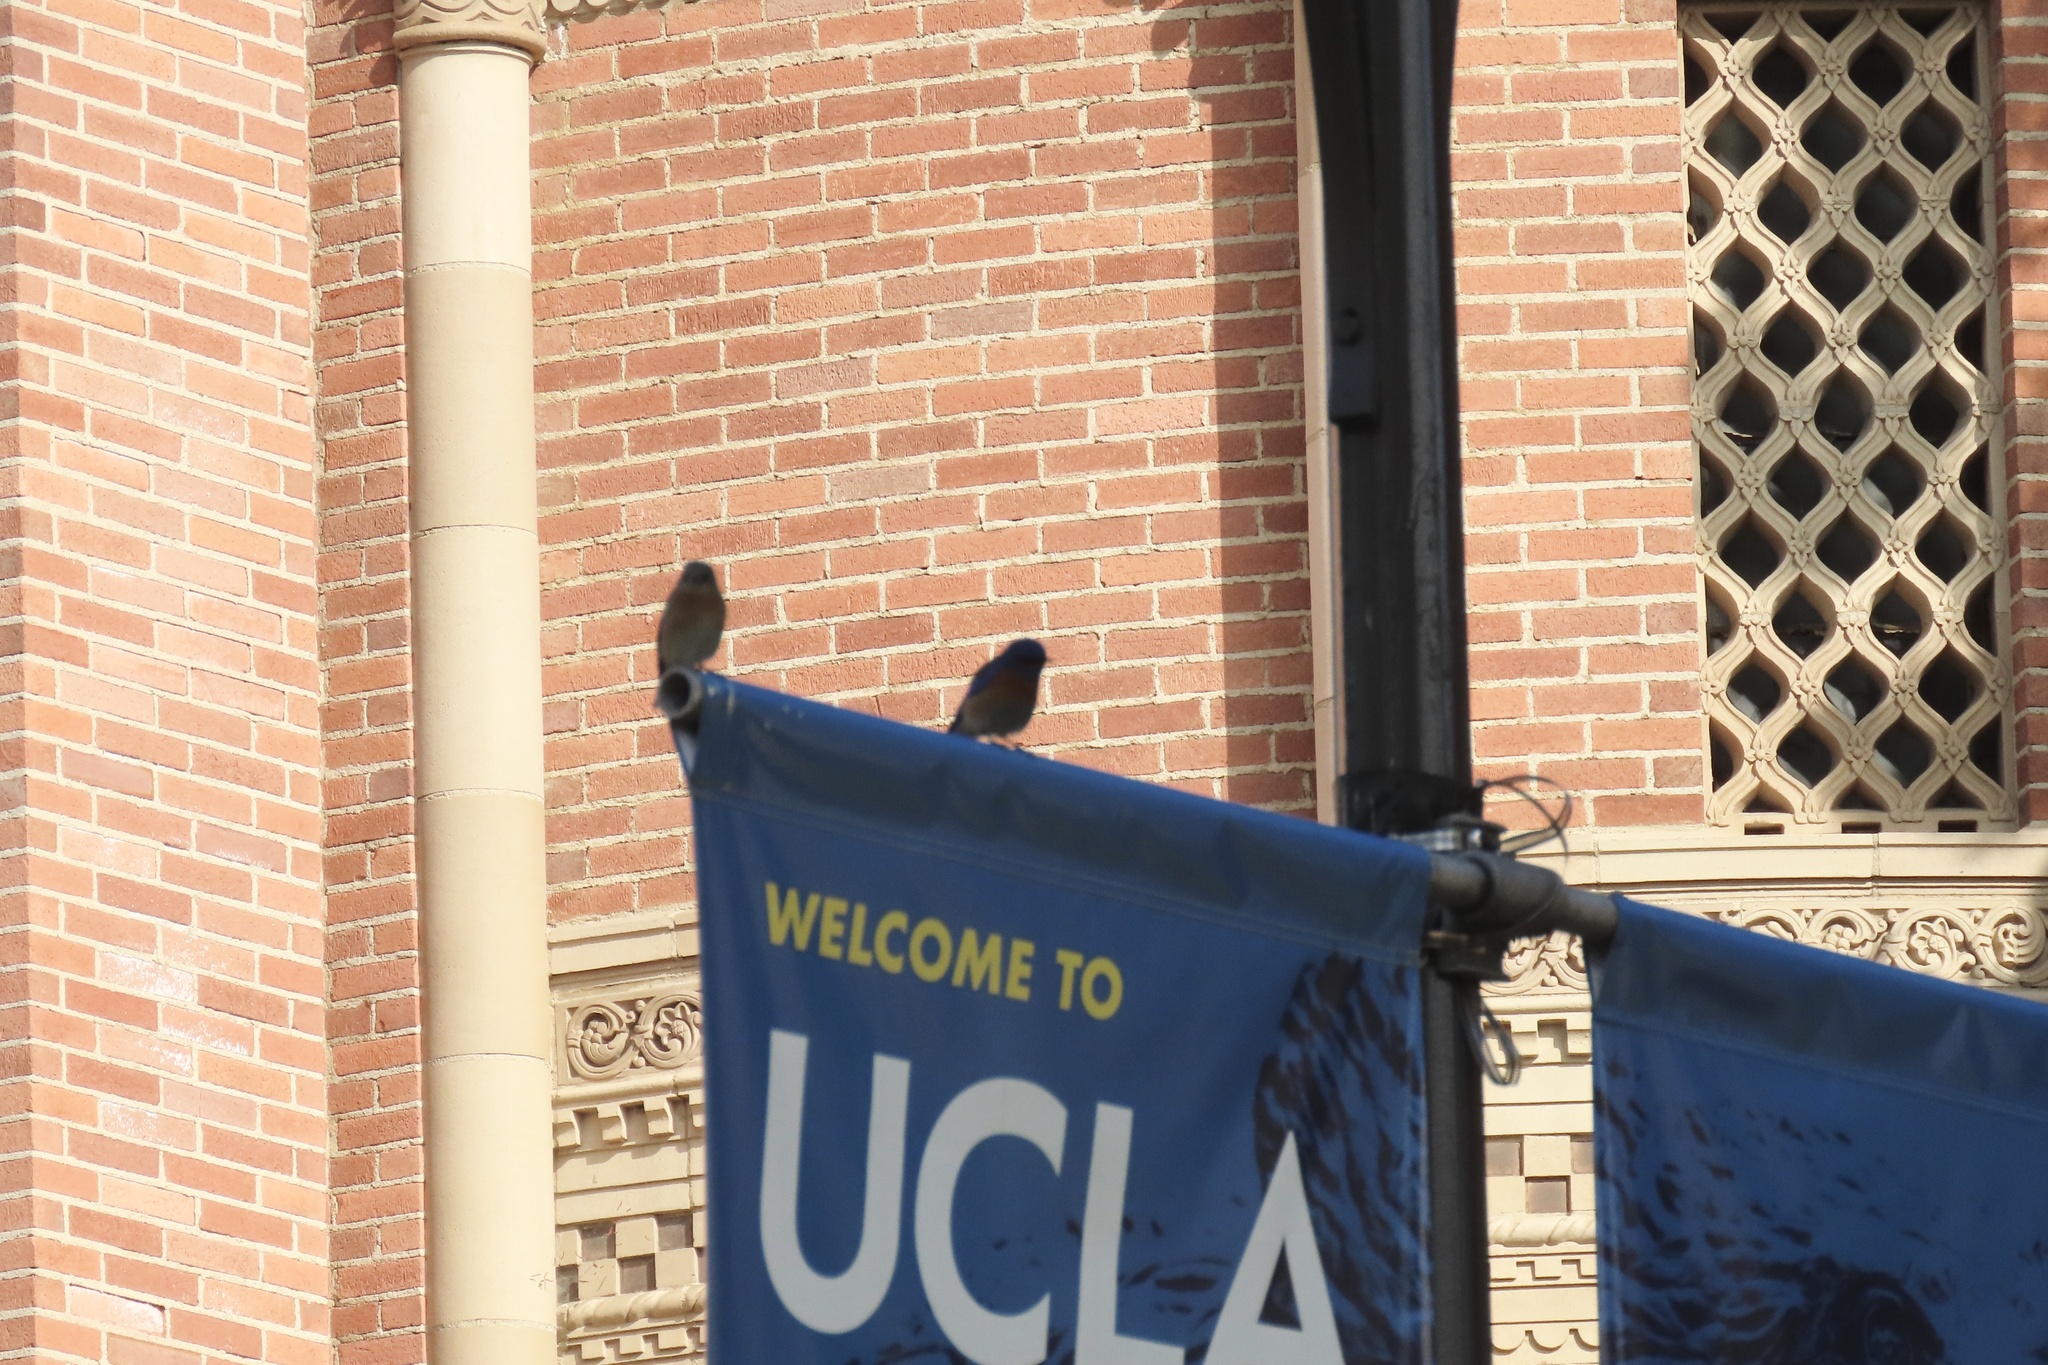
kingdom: Animalia
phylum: Chordata
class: Aves
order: Passeriformes
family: Turdidae
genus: Sialia
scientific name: Sialia mexicana
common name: Western bluebird
